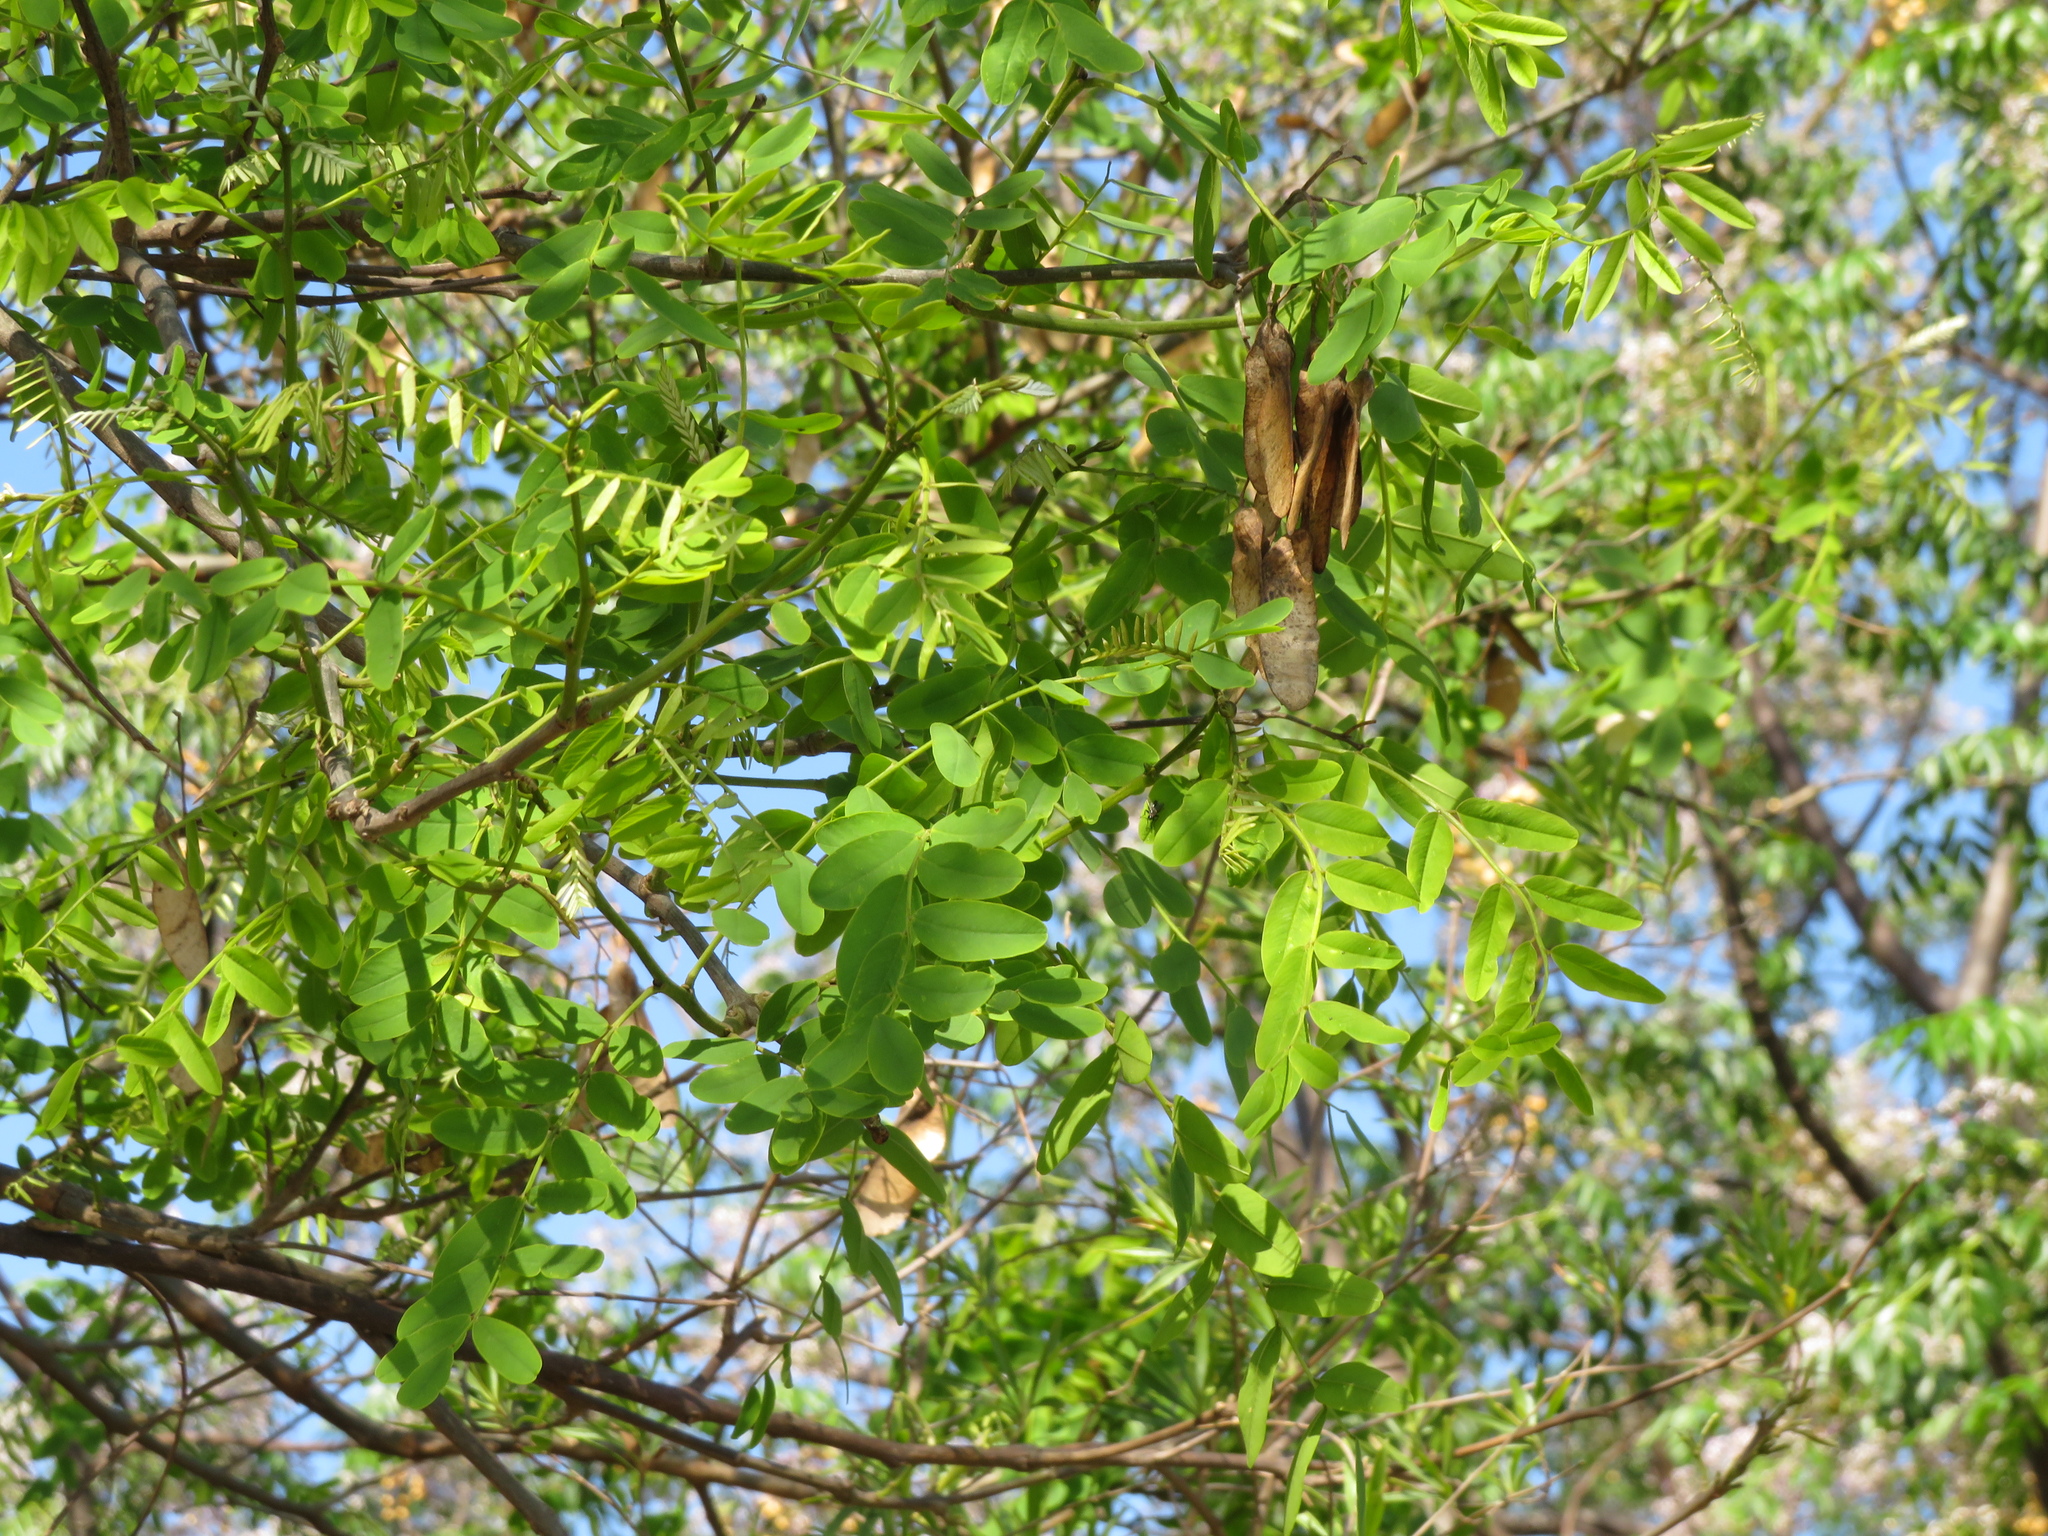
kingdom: Plantae
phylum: Tracheophyta
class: Magnoliopsida
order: Fabales
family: Fabaceae
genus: Tipuana
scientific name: Tipuana tipu
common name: Tiputree
